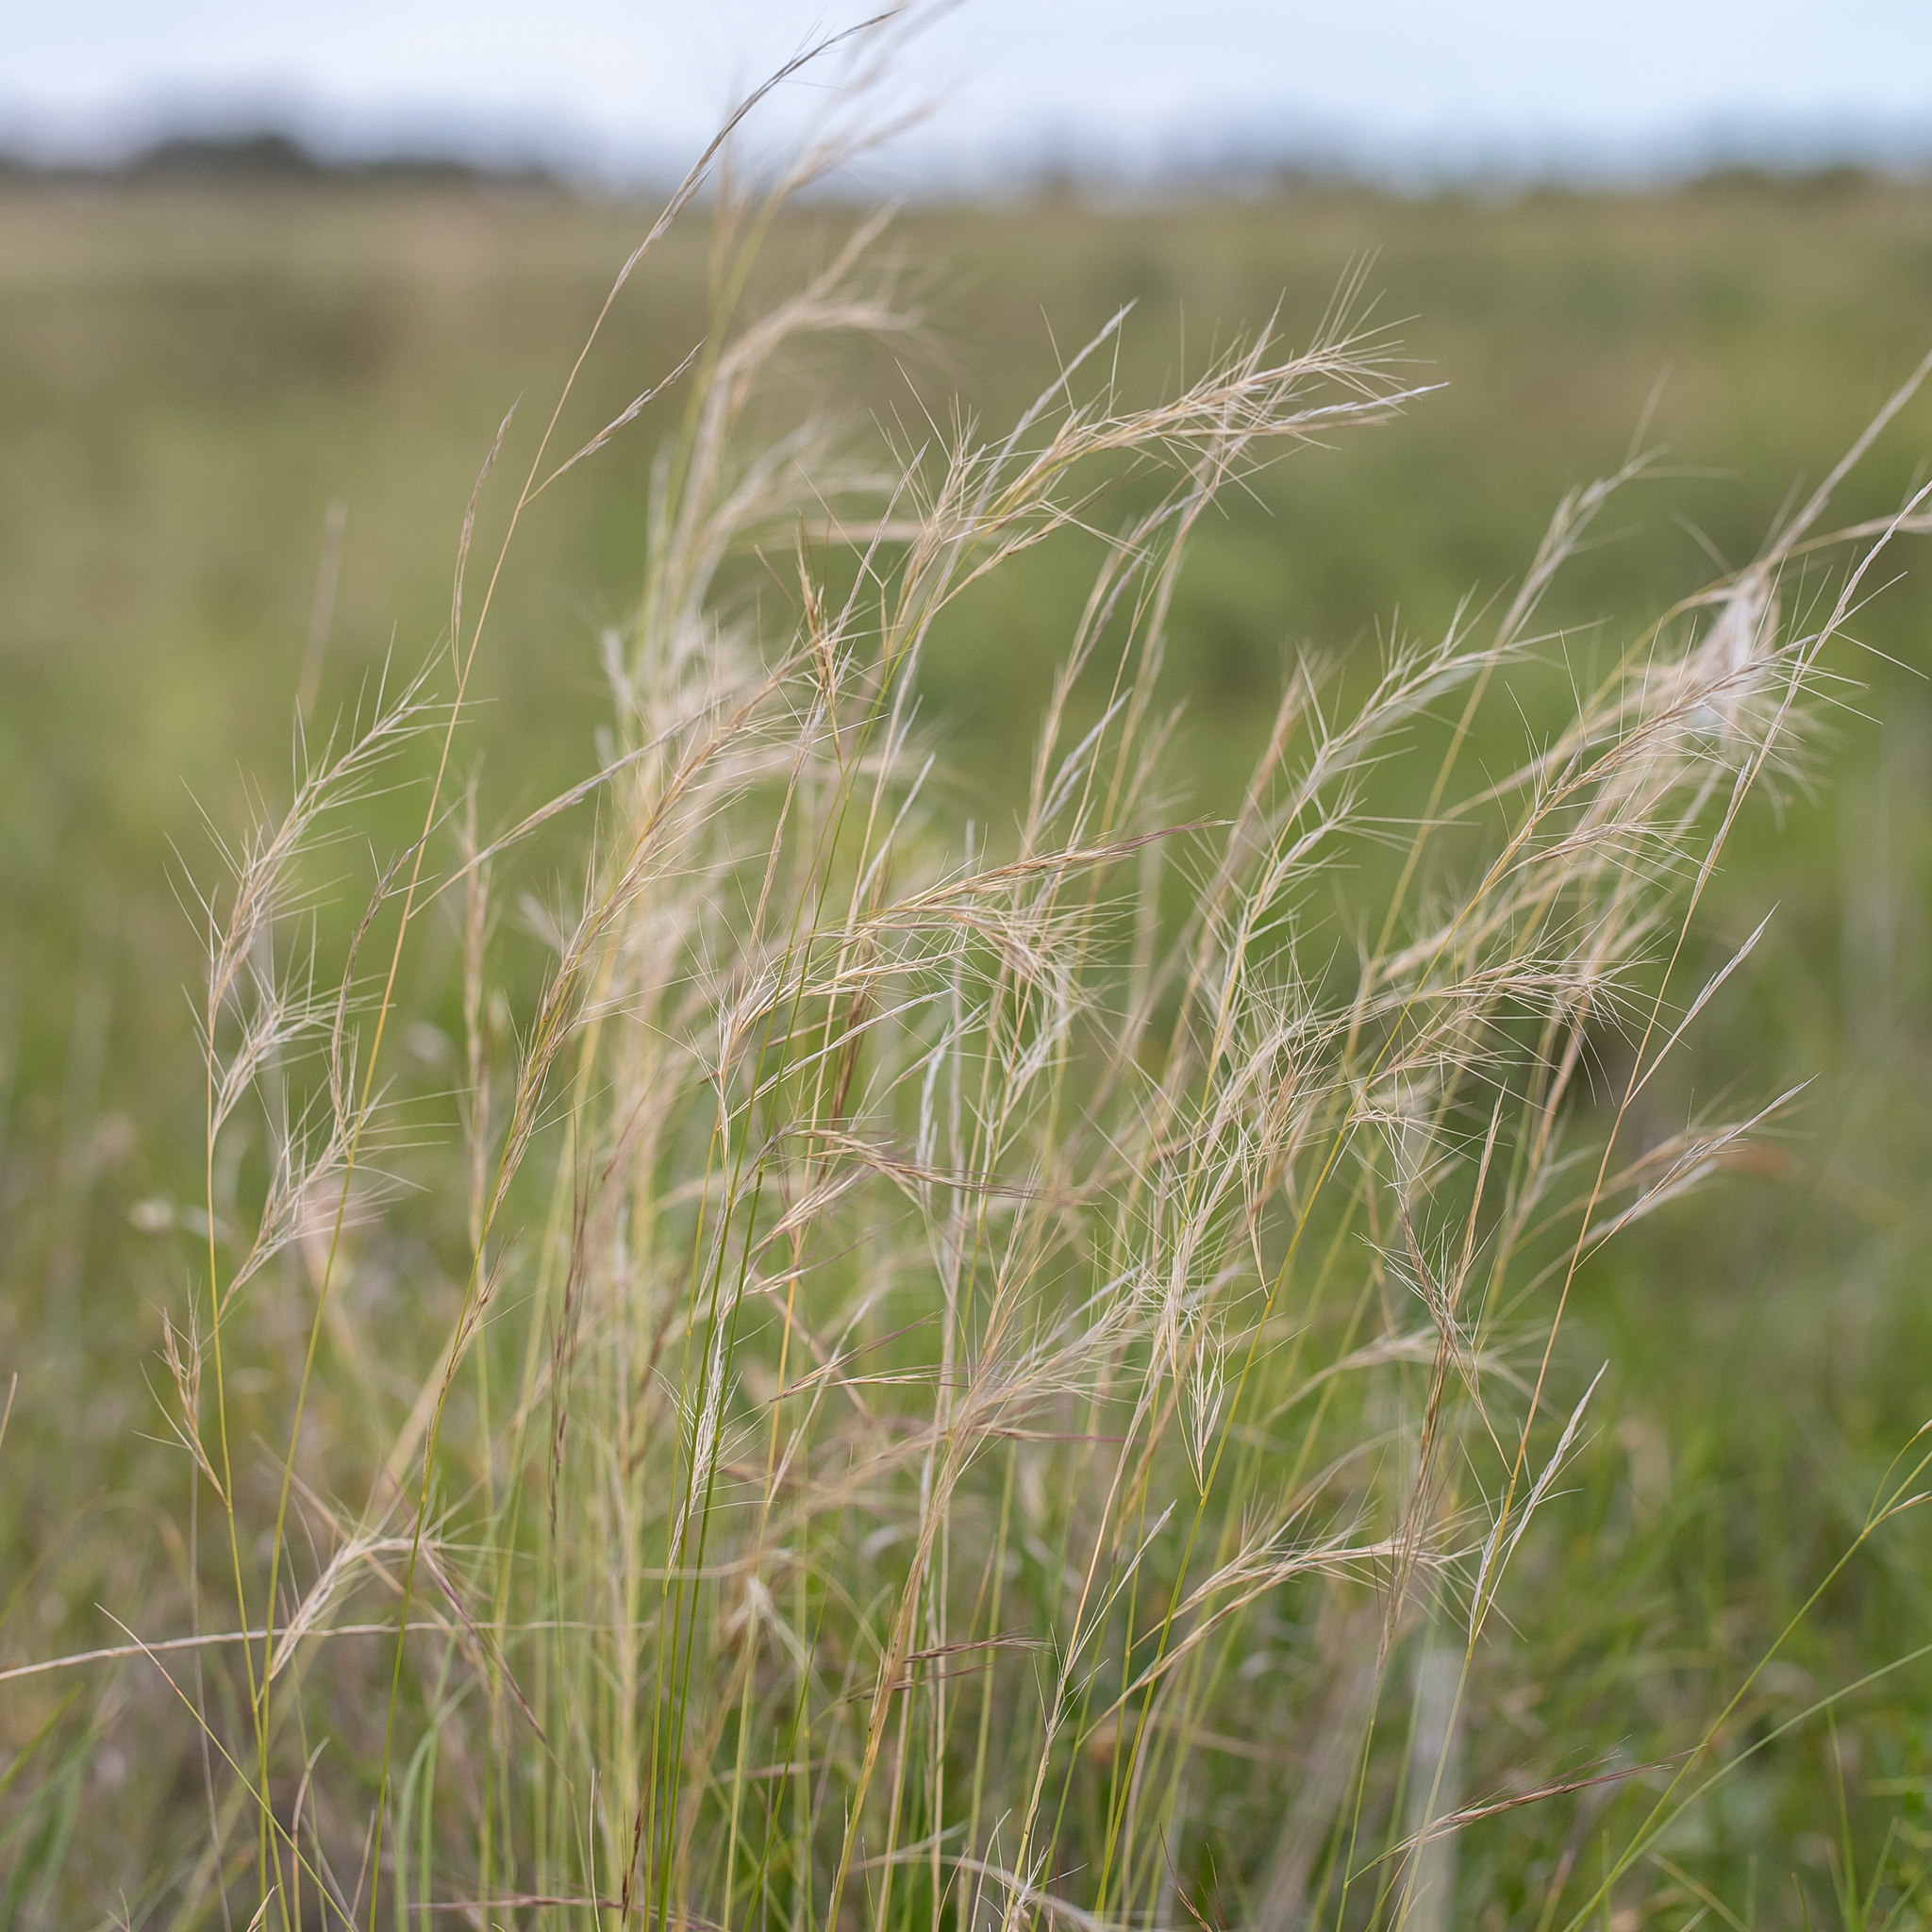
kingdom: Plantae
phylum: Tracheophyta
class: Liliopsida
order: Poales
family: Poaceae
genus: Aristida
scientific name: Aristida latifolia
